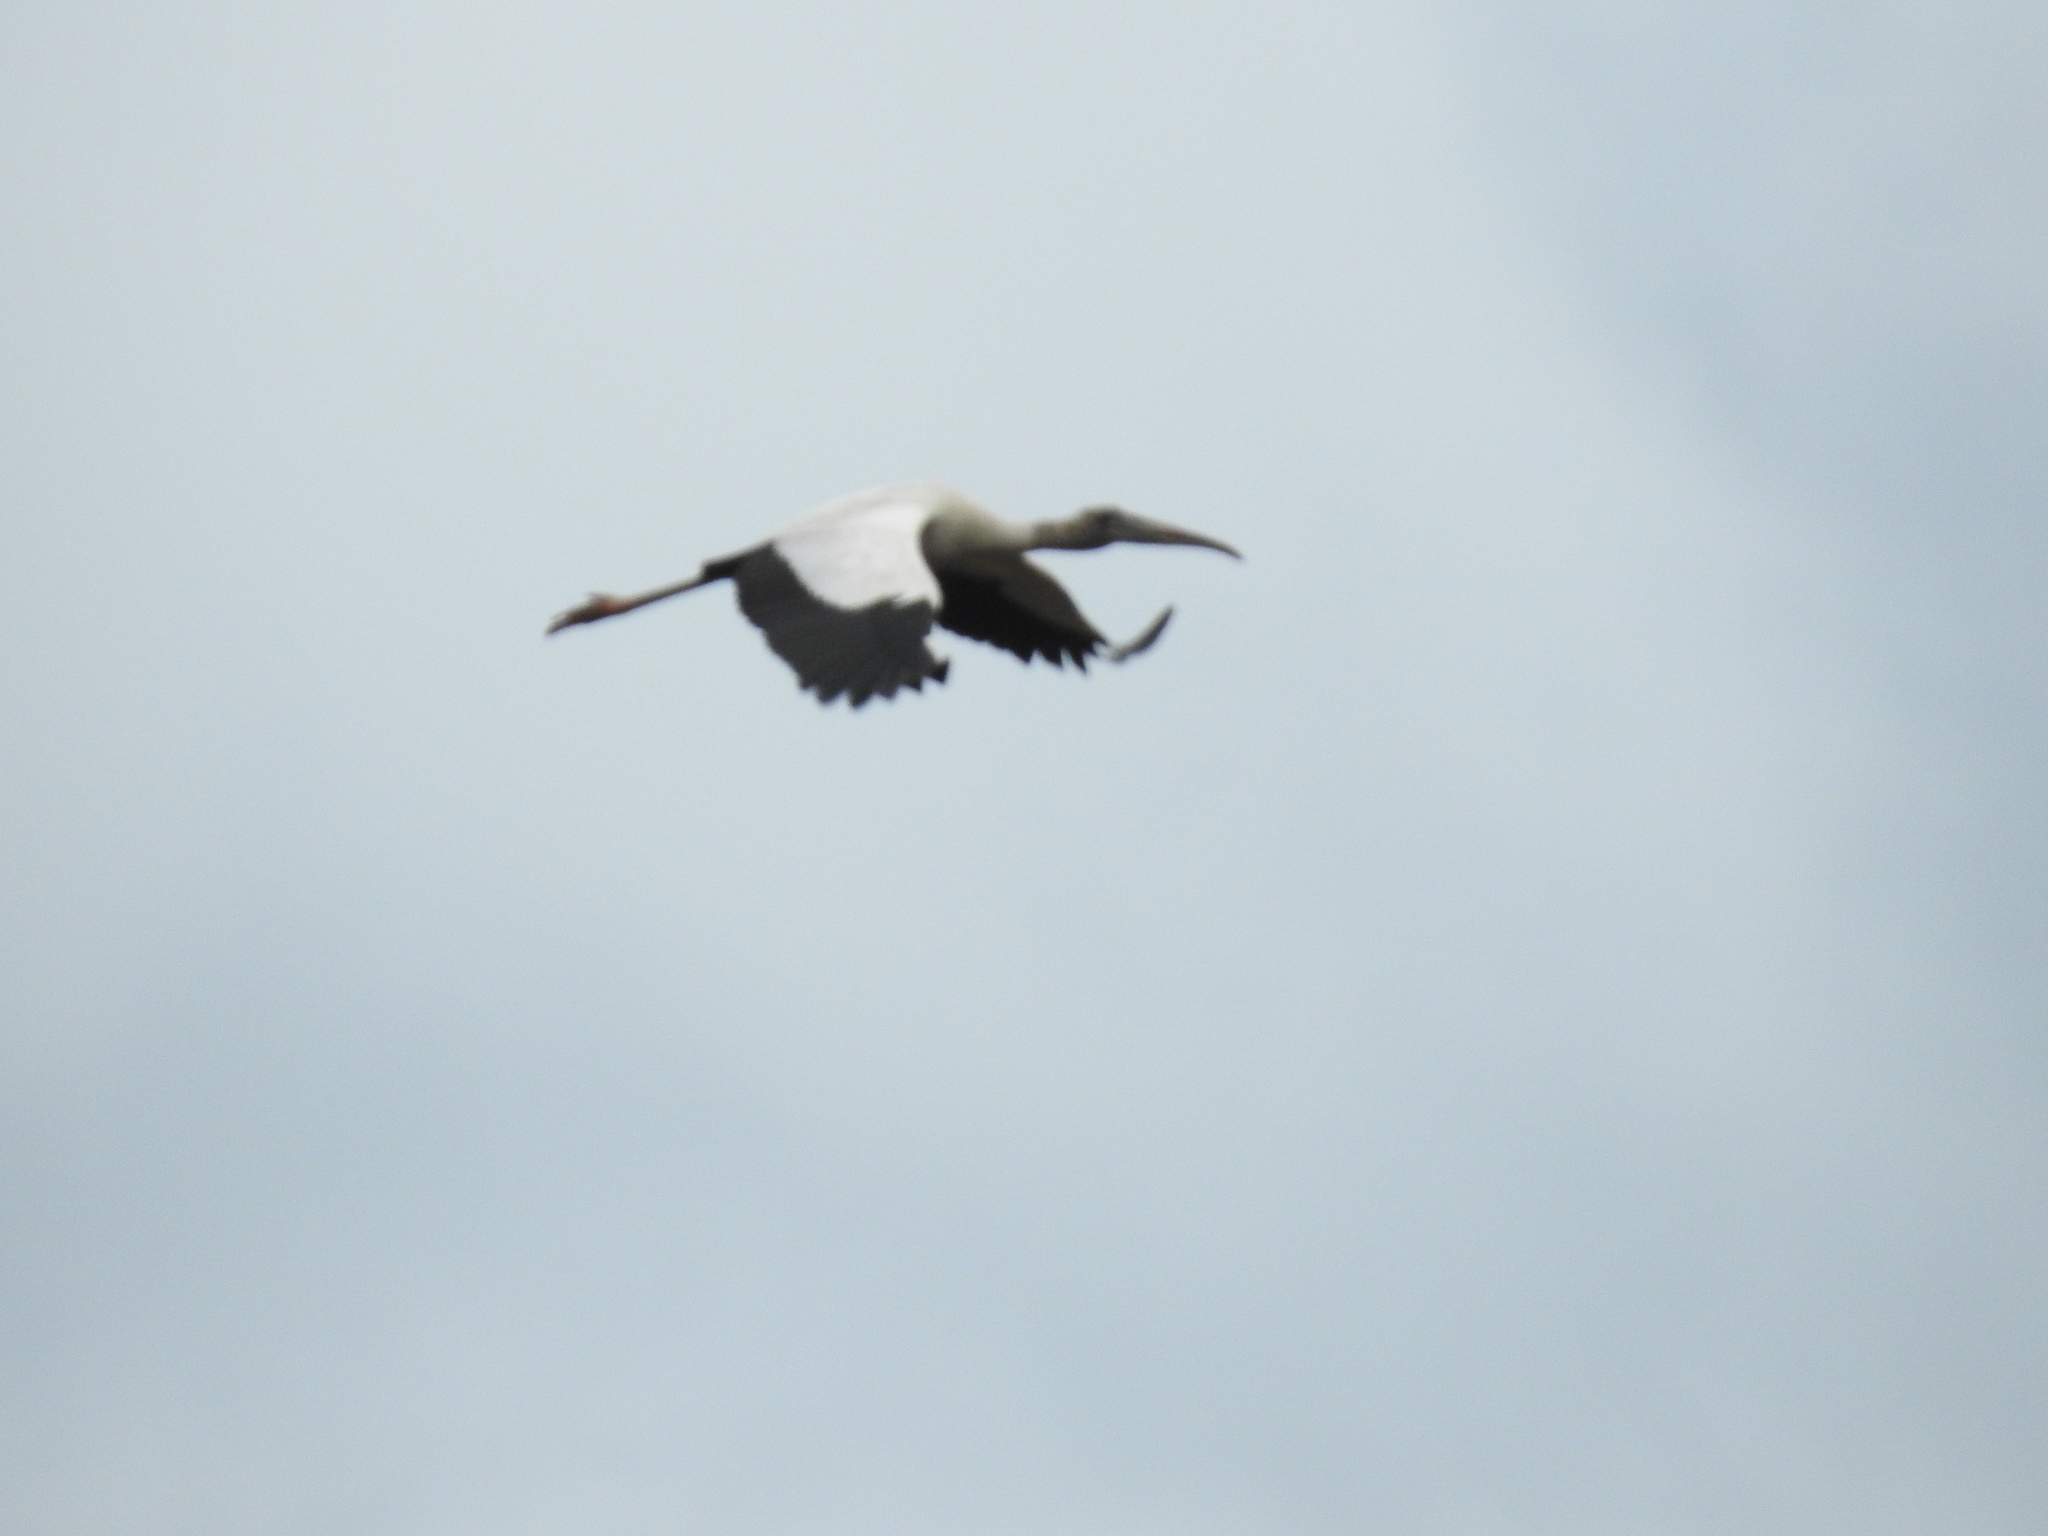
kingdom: Animalia
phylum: Chordata
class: Aves
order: Ciconiiformes
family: Ciconiidae
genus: Mycteria
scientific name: Mycteria americana
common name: Wood stork
